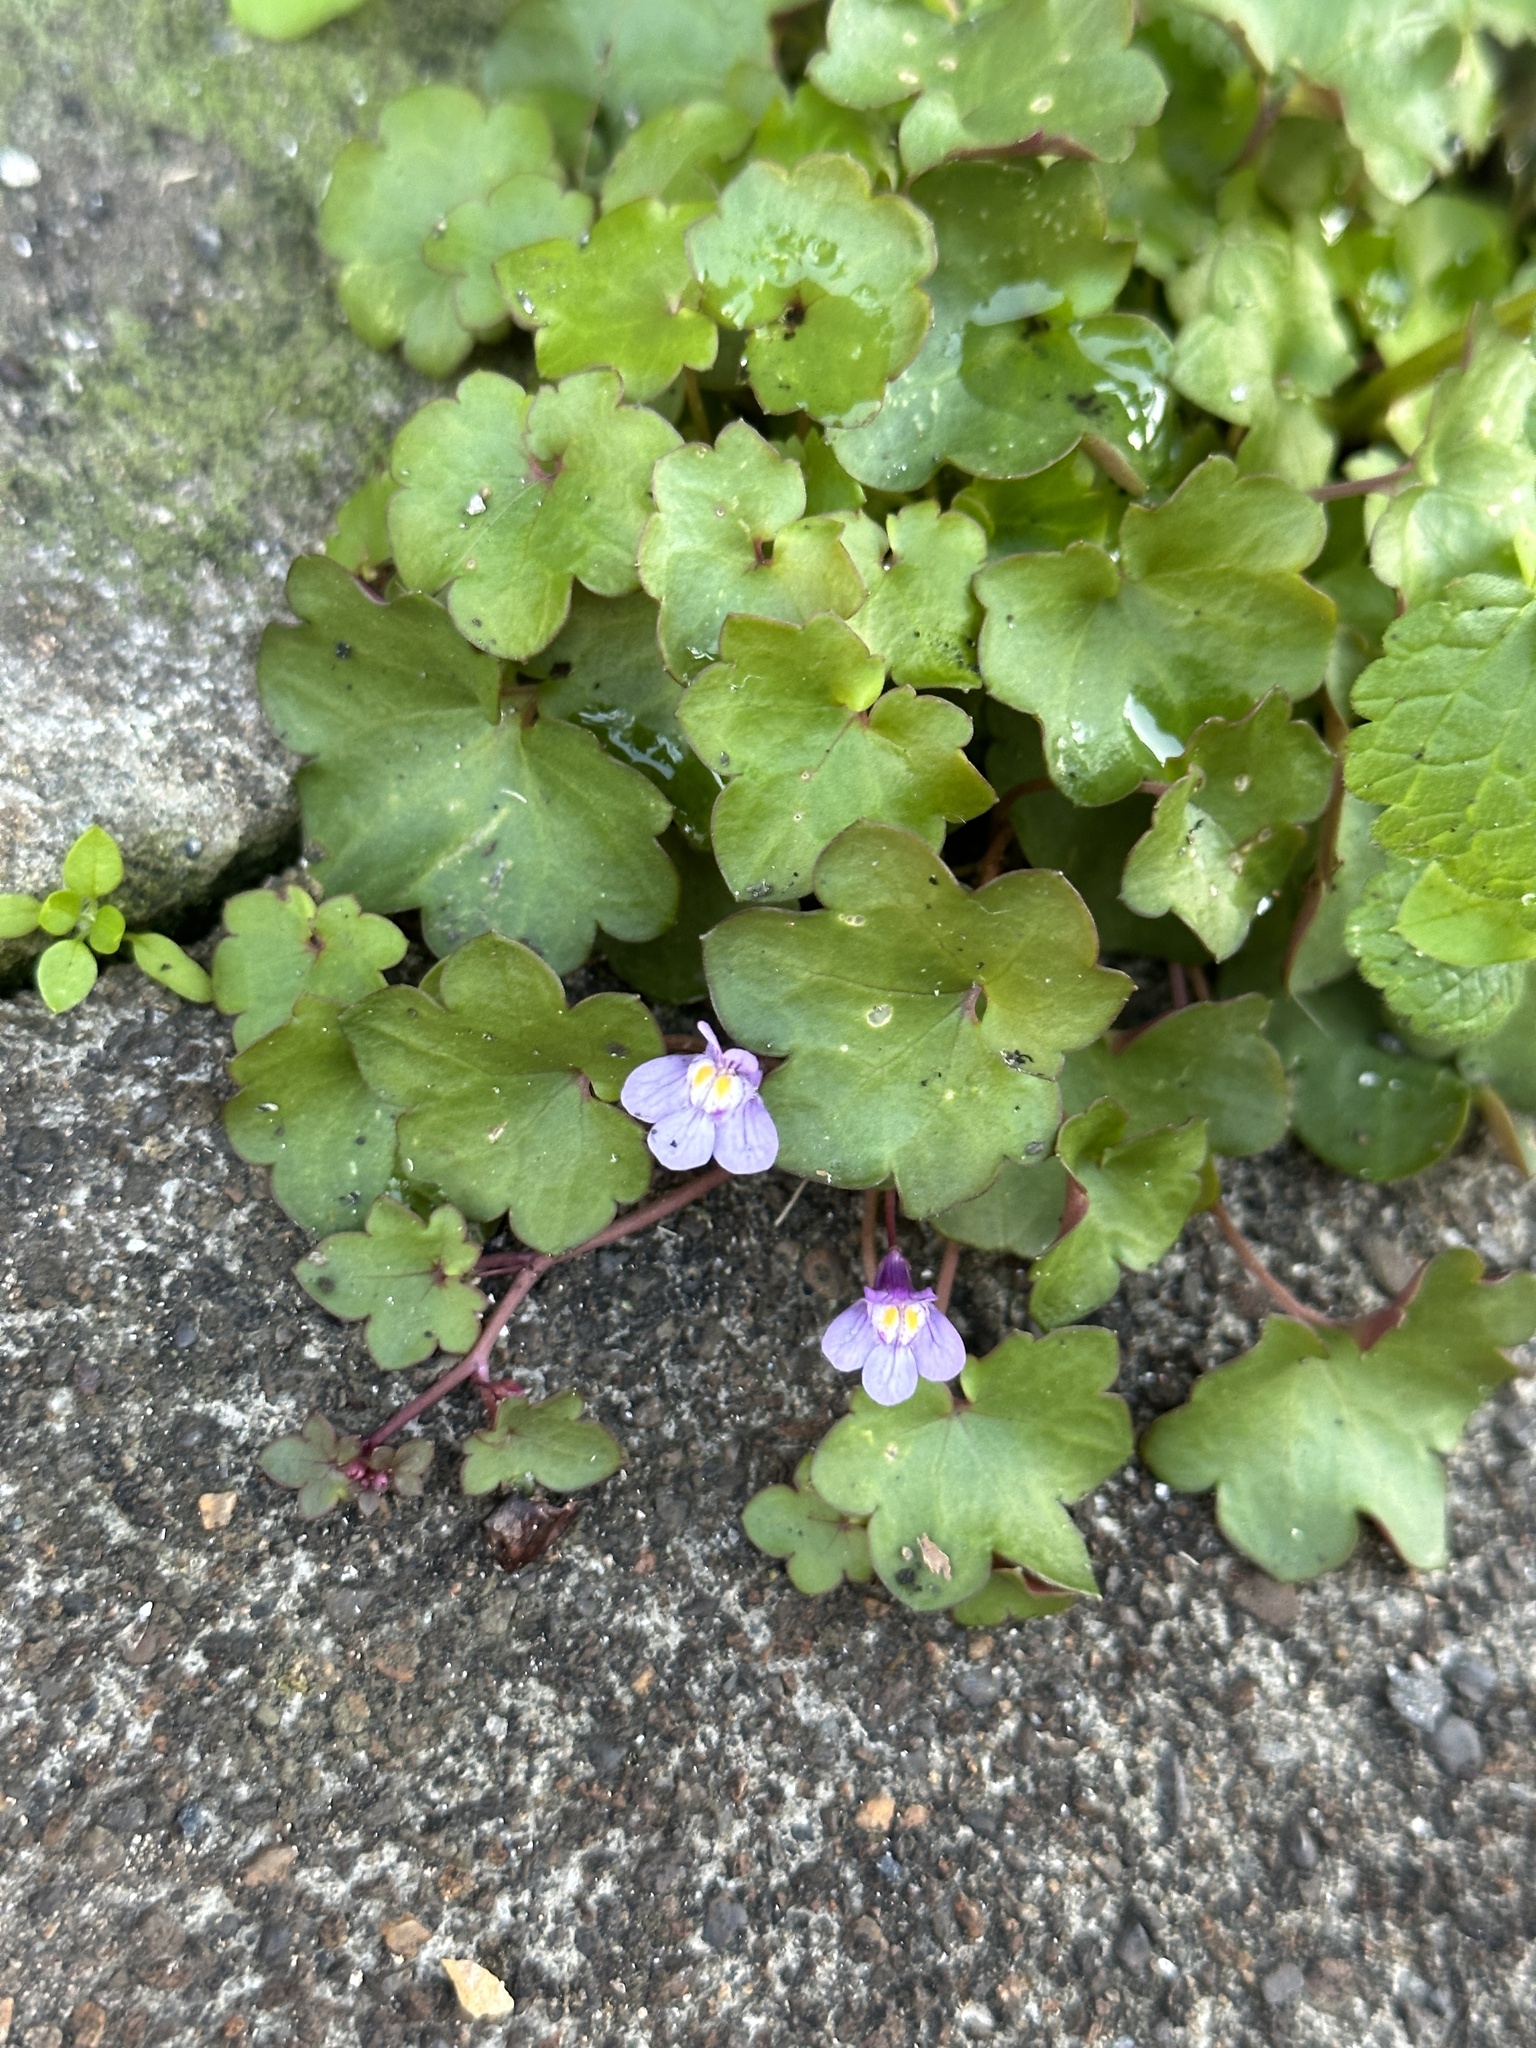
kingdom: Plantae
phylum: Tracheophyta
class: Magnoliopsida
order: Lamiales
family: Plantaginaceae
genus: Cymbalaria
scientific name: Cymbalaria muralis
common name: Ivy-leaved toadflax
